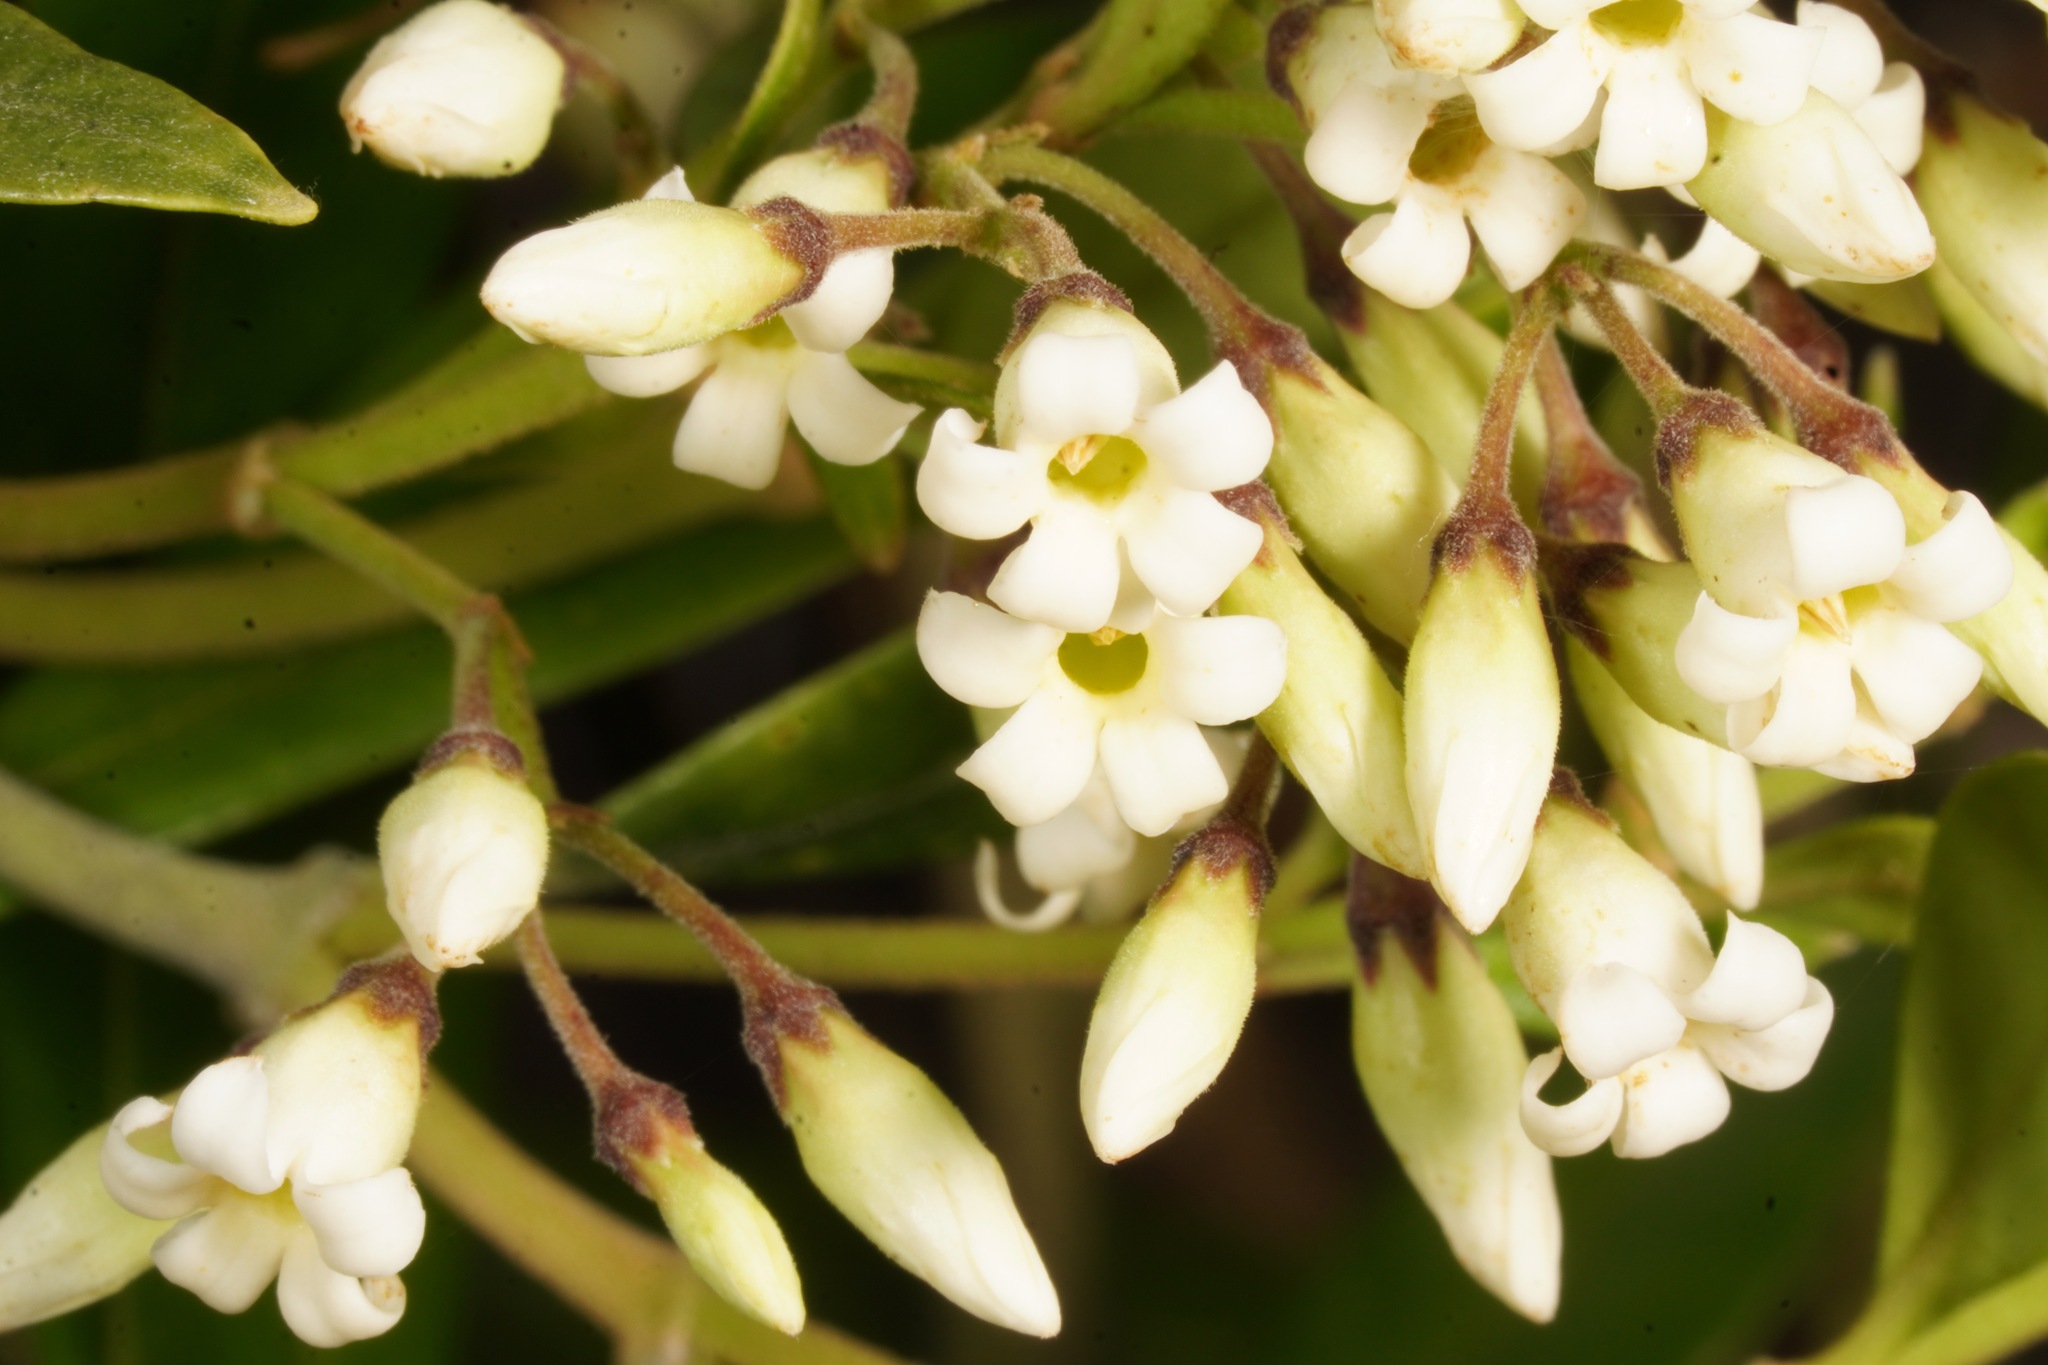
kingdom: Plantae
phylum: Tracheophyta
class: Magnoliopsida
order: Gentianales
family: Apocynaceae
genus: Parsonsia
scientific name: Parsonsia heterophylla
